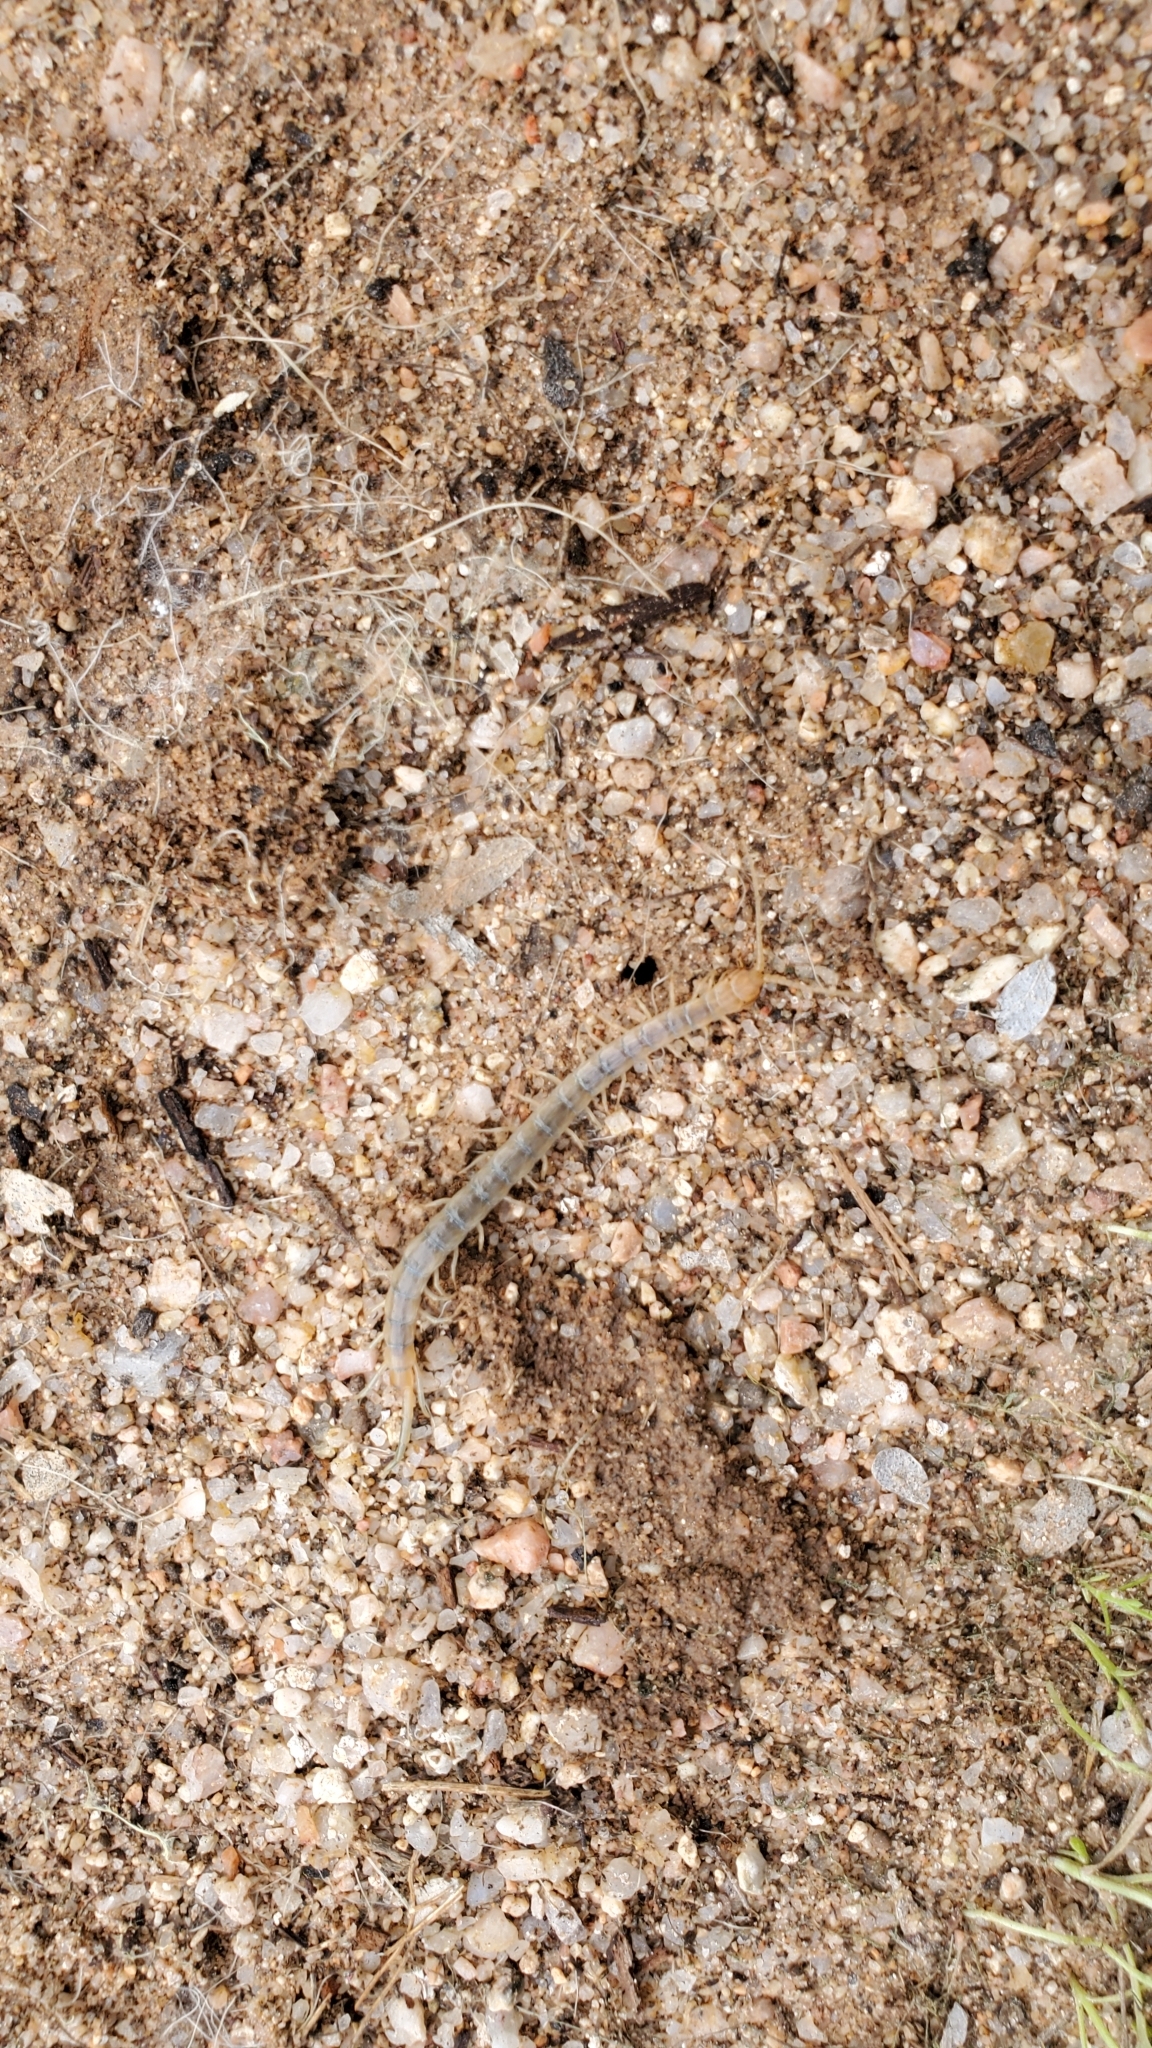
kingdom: Animalia
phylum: Arthropoda
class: Chilopoda
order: Scolopendromorpha
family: Scolopendridae
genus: Scolopendra
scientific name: Scolopendra polymorpha
